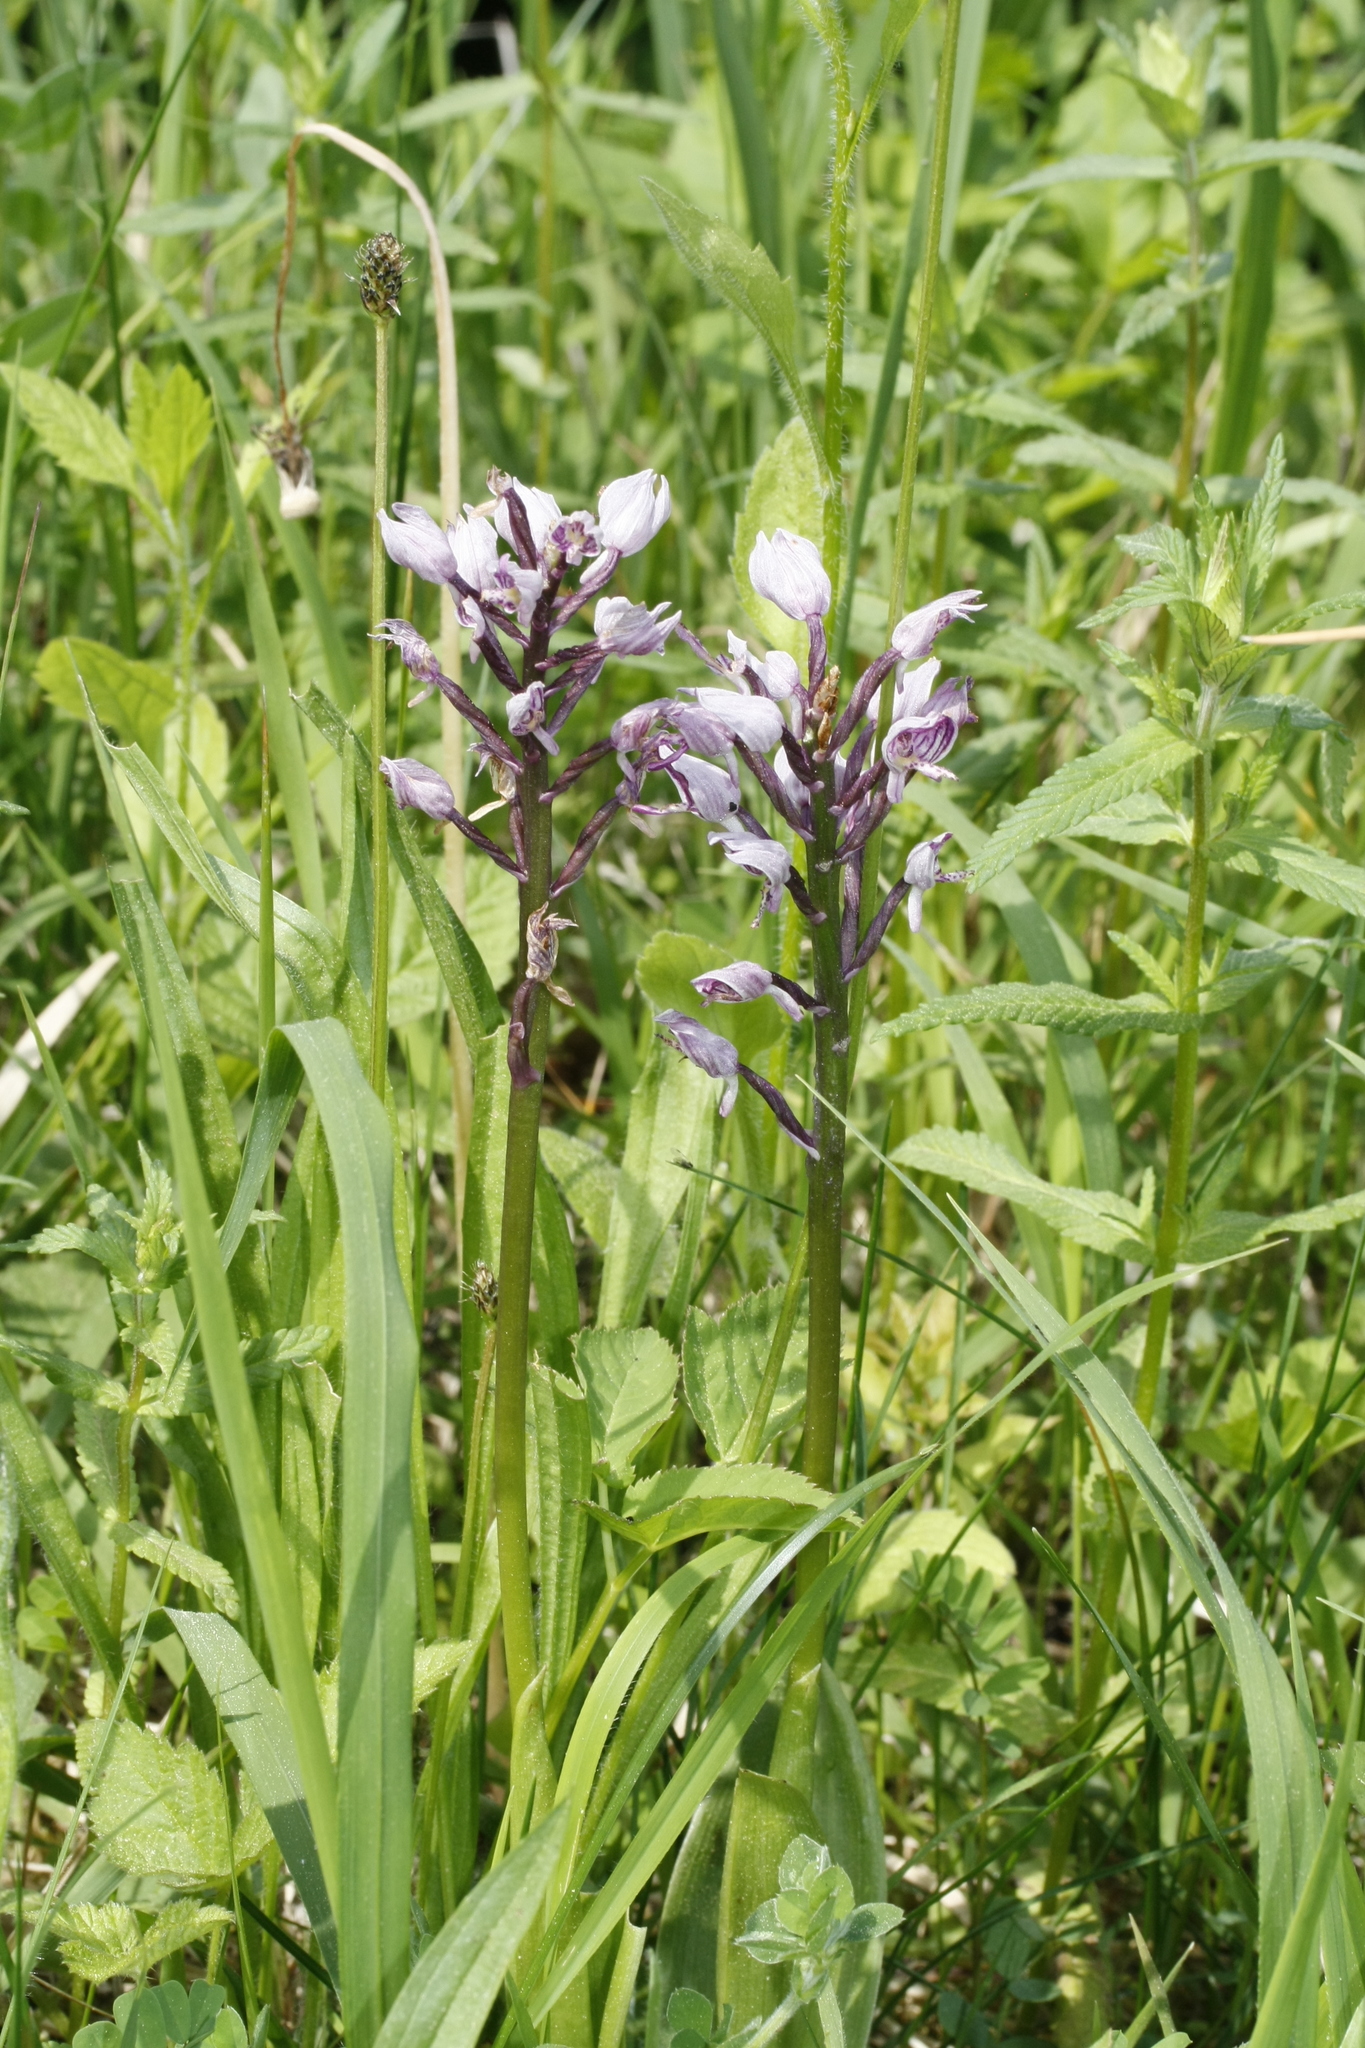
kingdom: Plantae
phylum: Tracheophyta
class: Liliopsida
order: Asparagales
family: Orchidaceae
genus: Orchis
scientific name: Orchis militaris
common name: Military orchid
